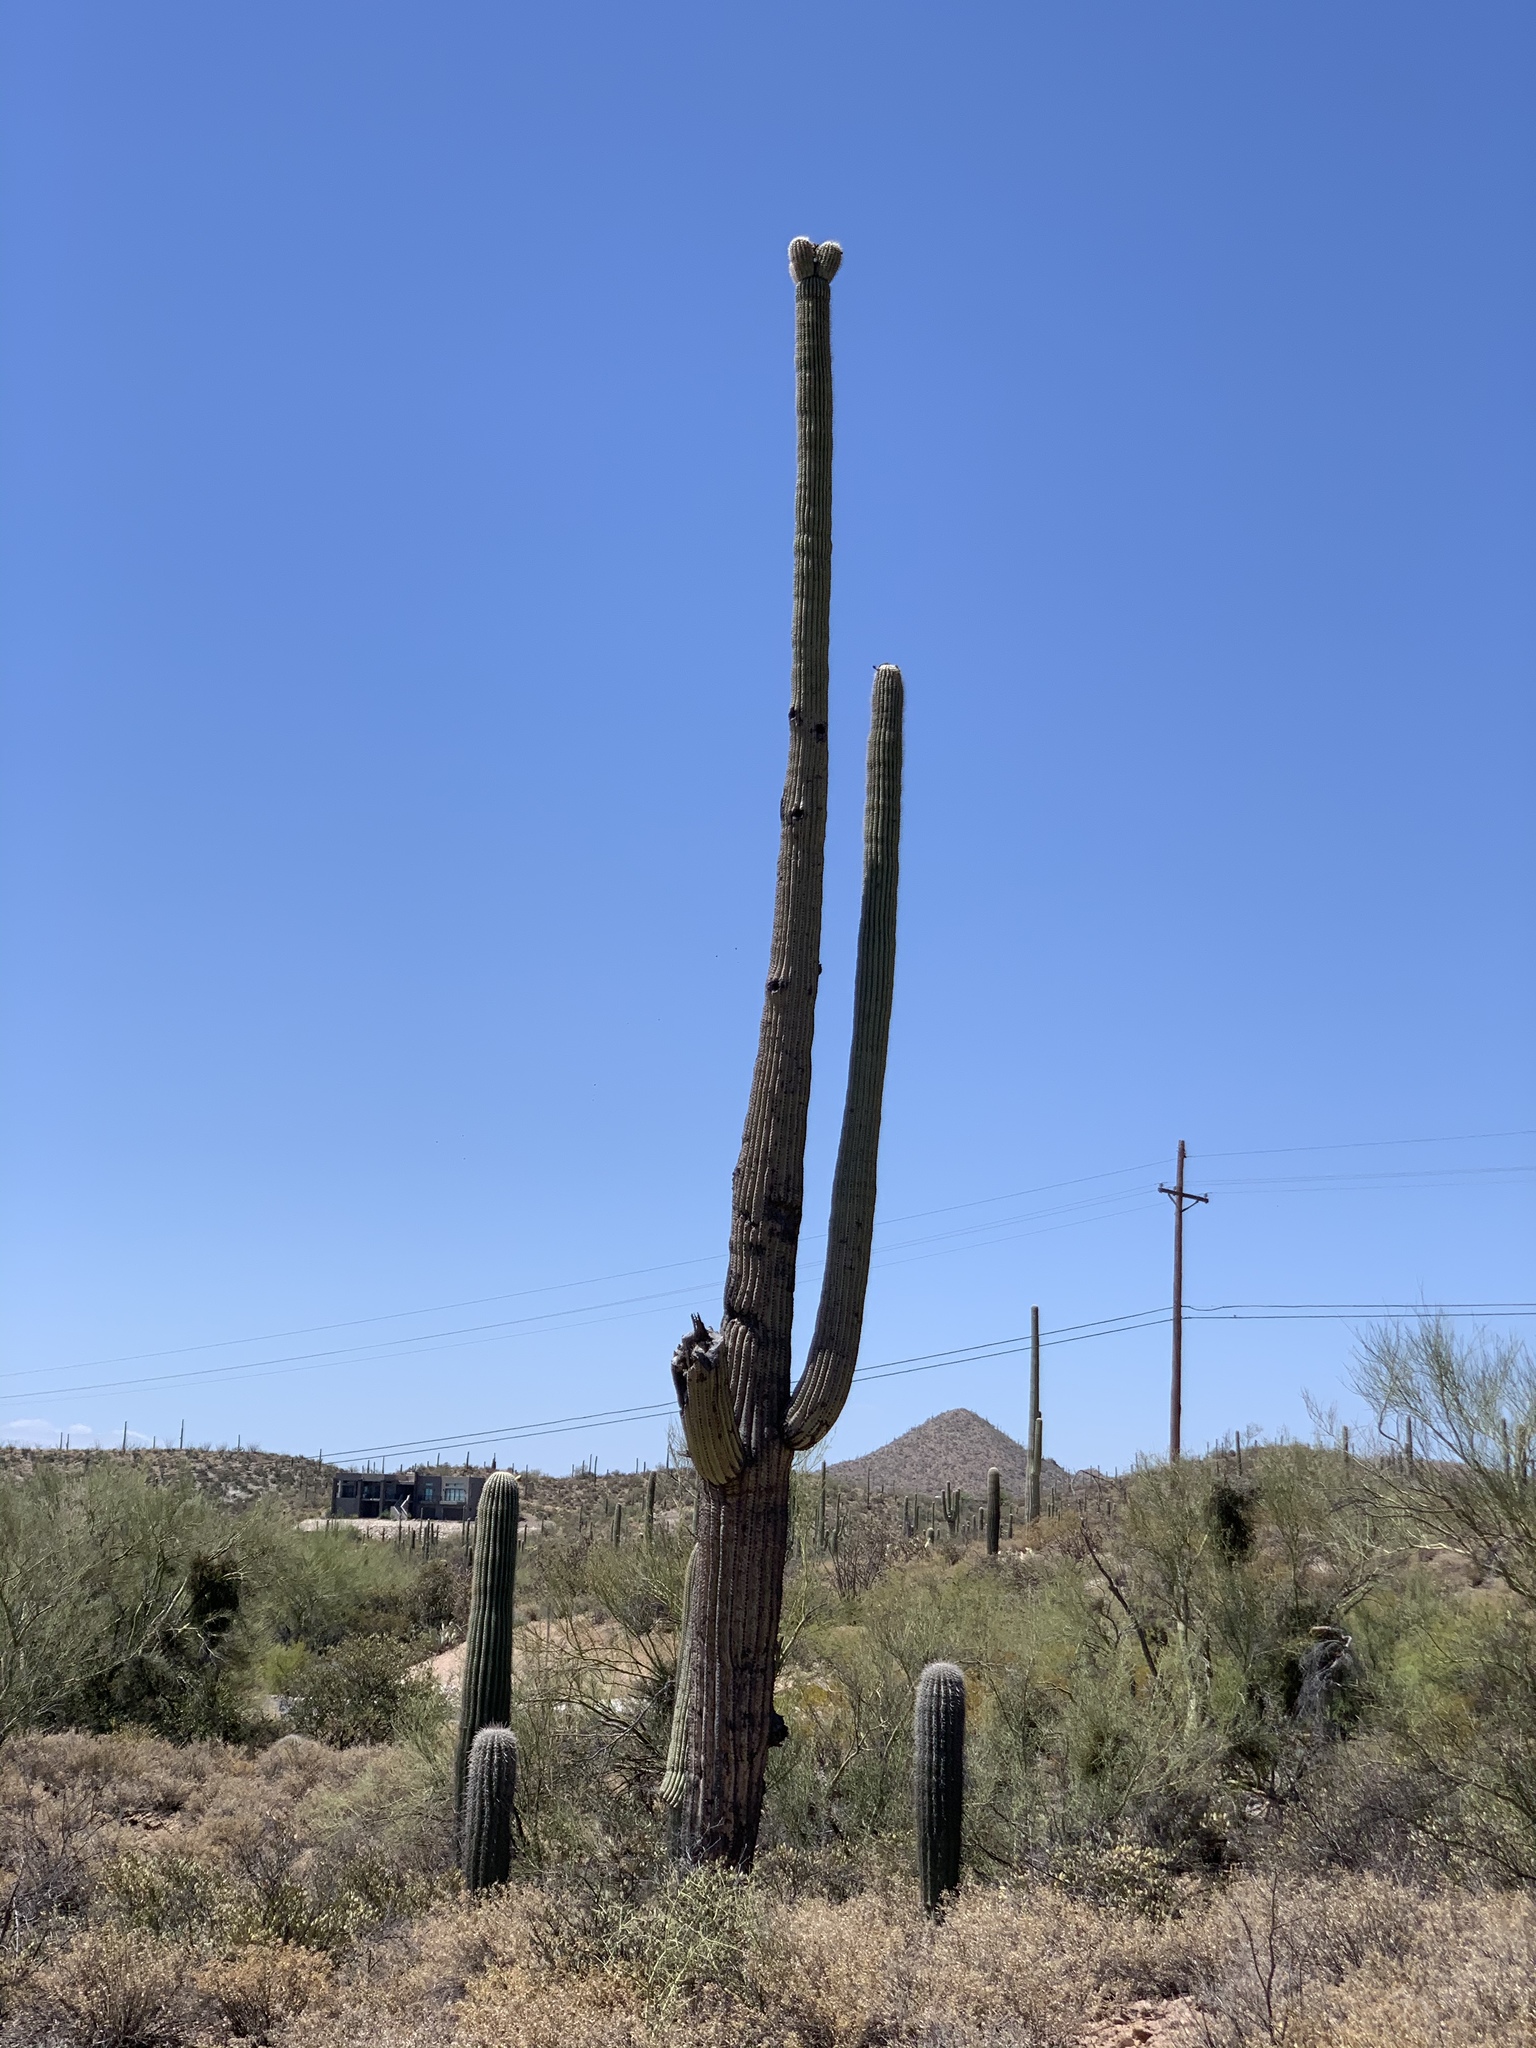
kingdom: Plantae
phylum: Tracheophyta
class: Magnoliopsida
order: Caryophyllales
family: Cactaceae
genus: Carnegiea
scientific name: Carnegiea gigantea
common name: Saguaro
